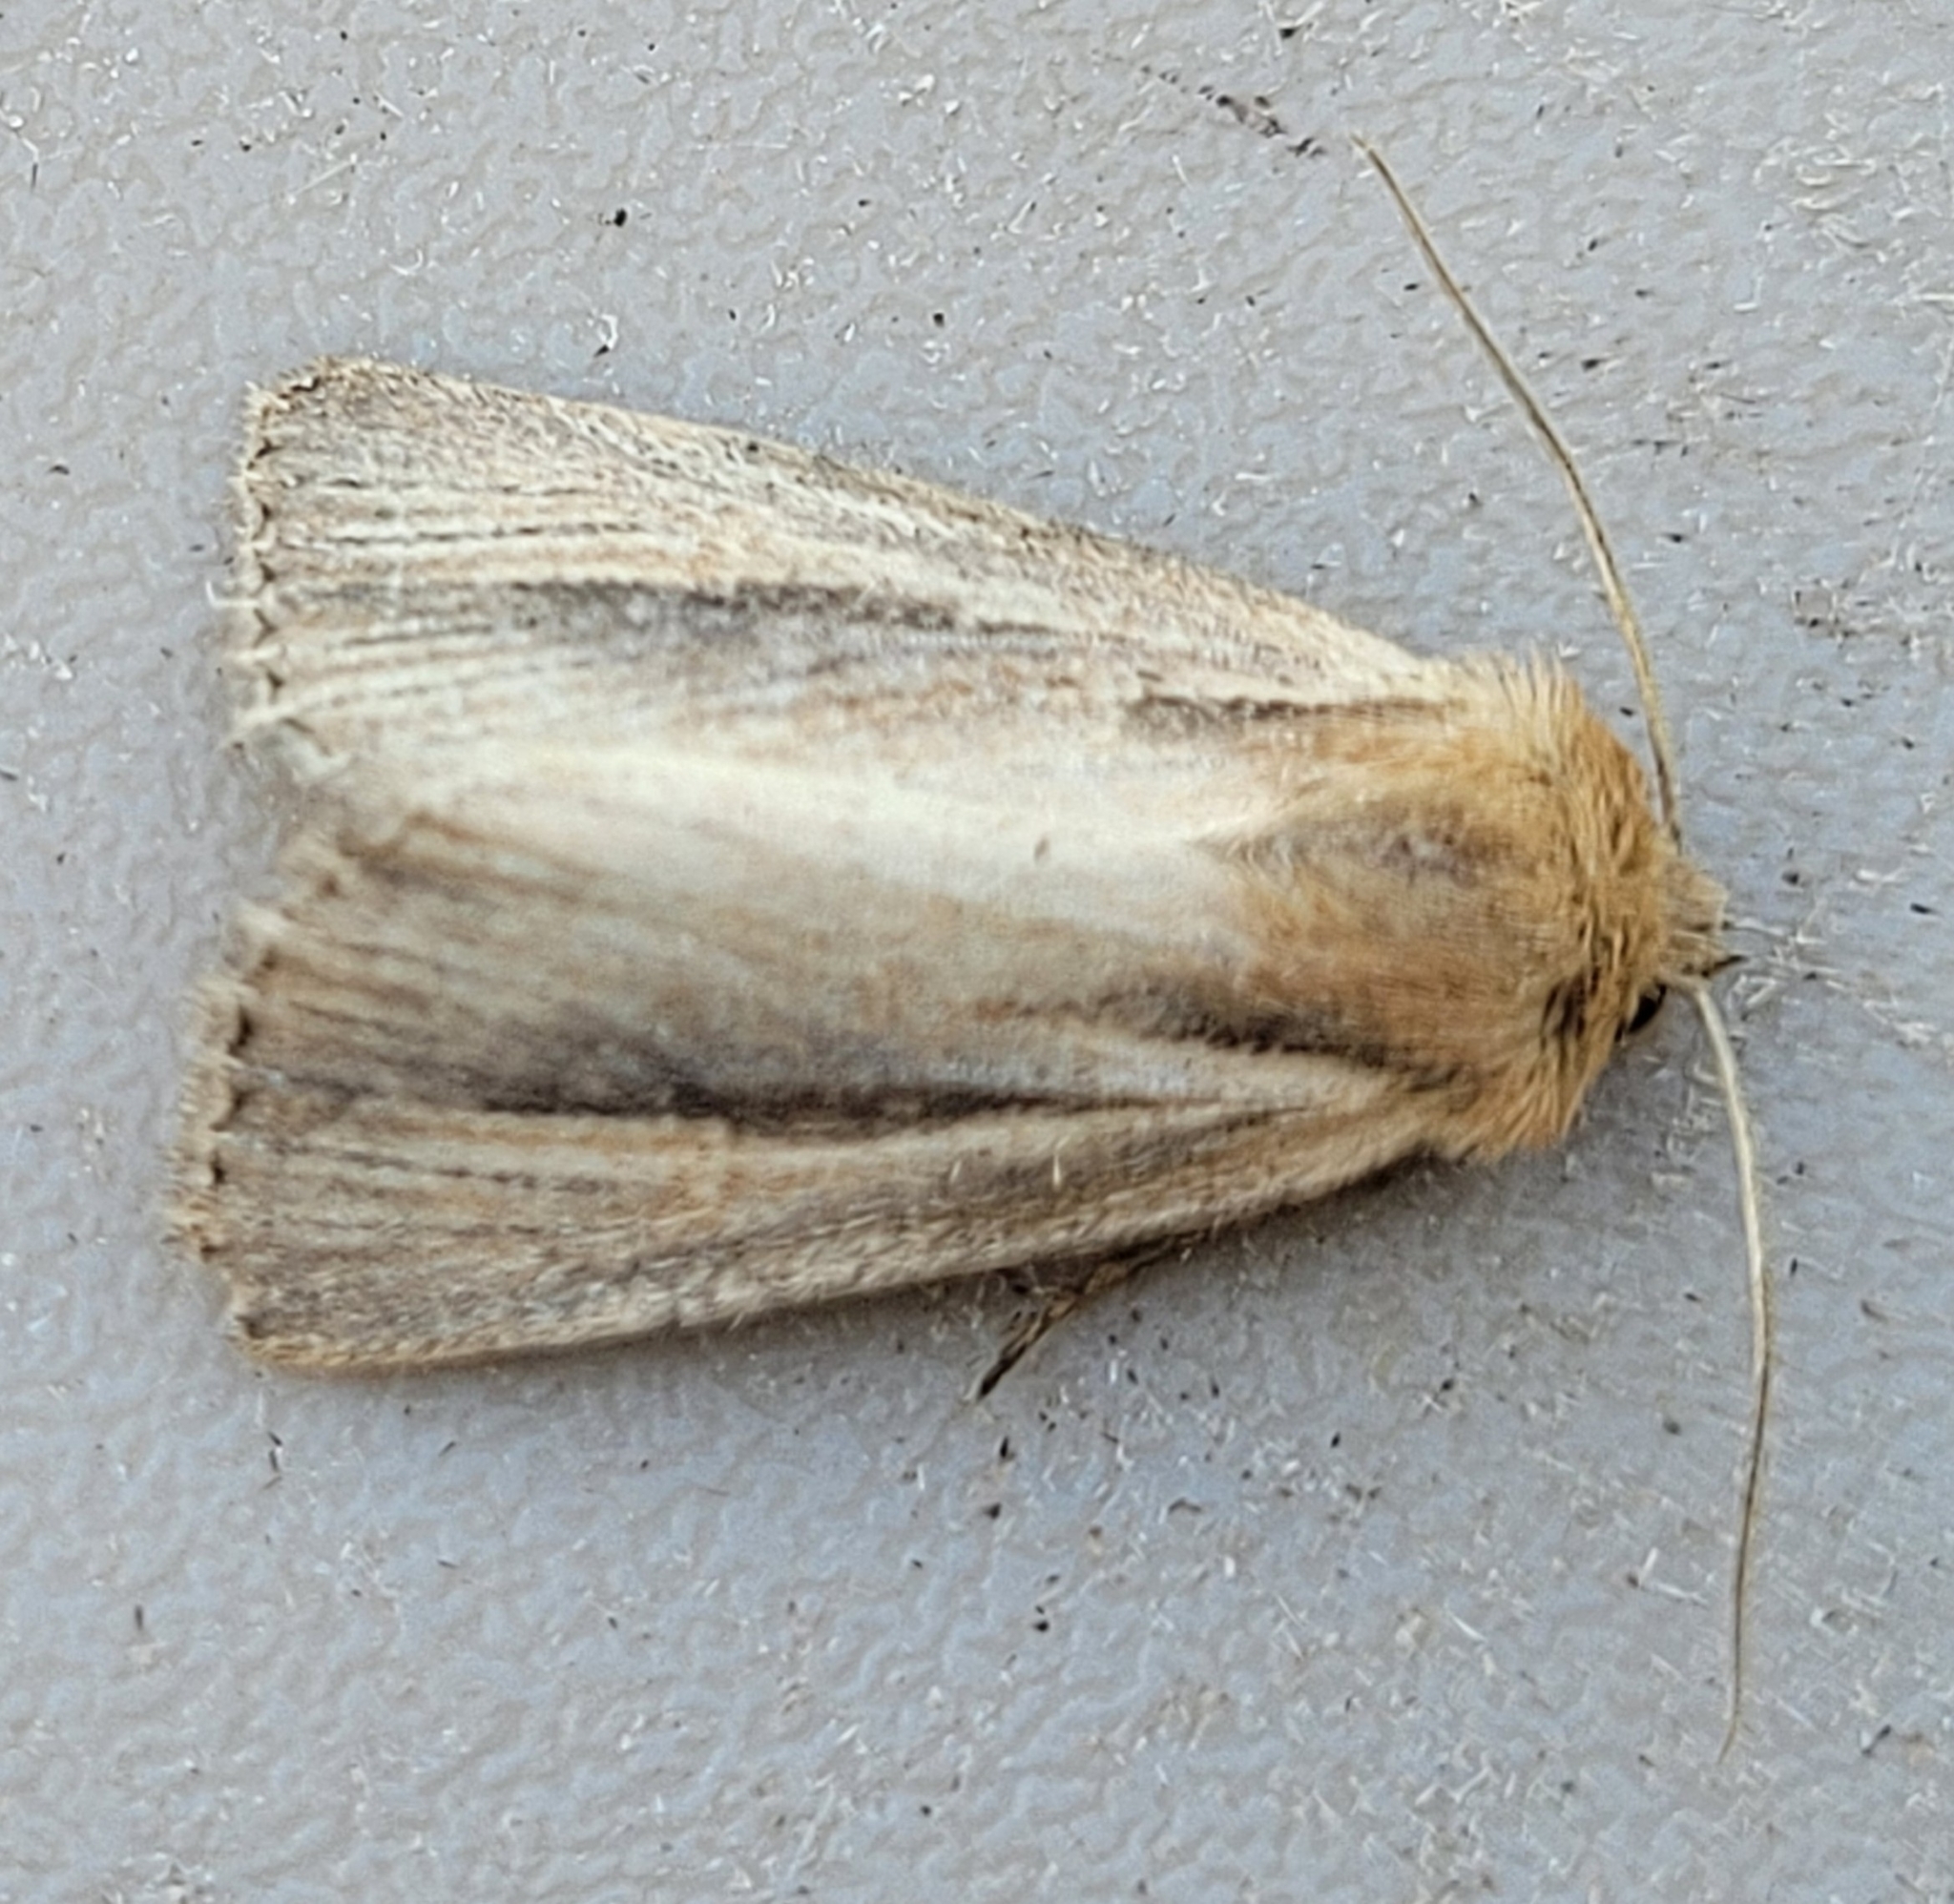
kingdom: Animalia
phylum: Arthropoda
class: Insecta
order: Lepidoptera
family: Noctuidae
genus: Hypocoena
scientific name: Hypocoena rufostrigata
